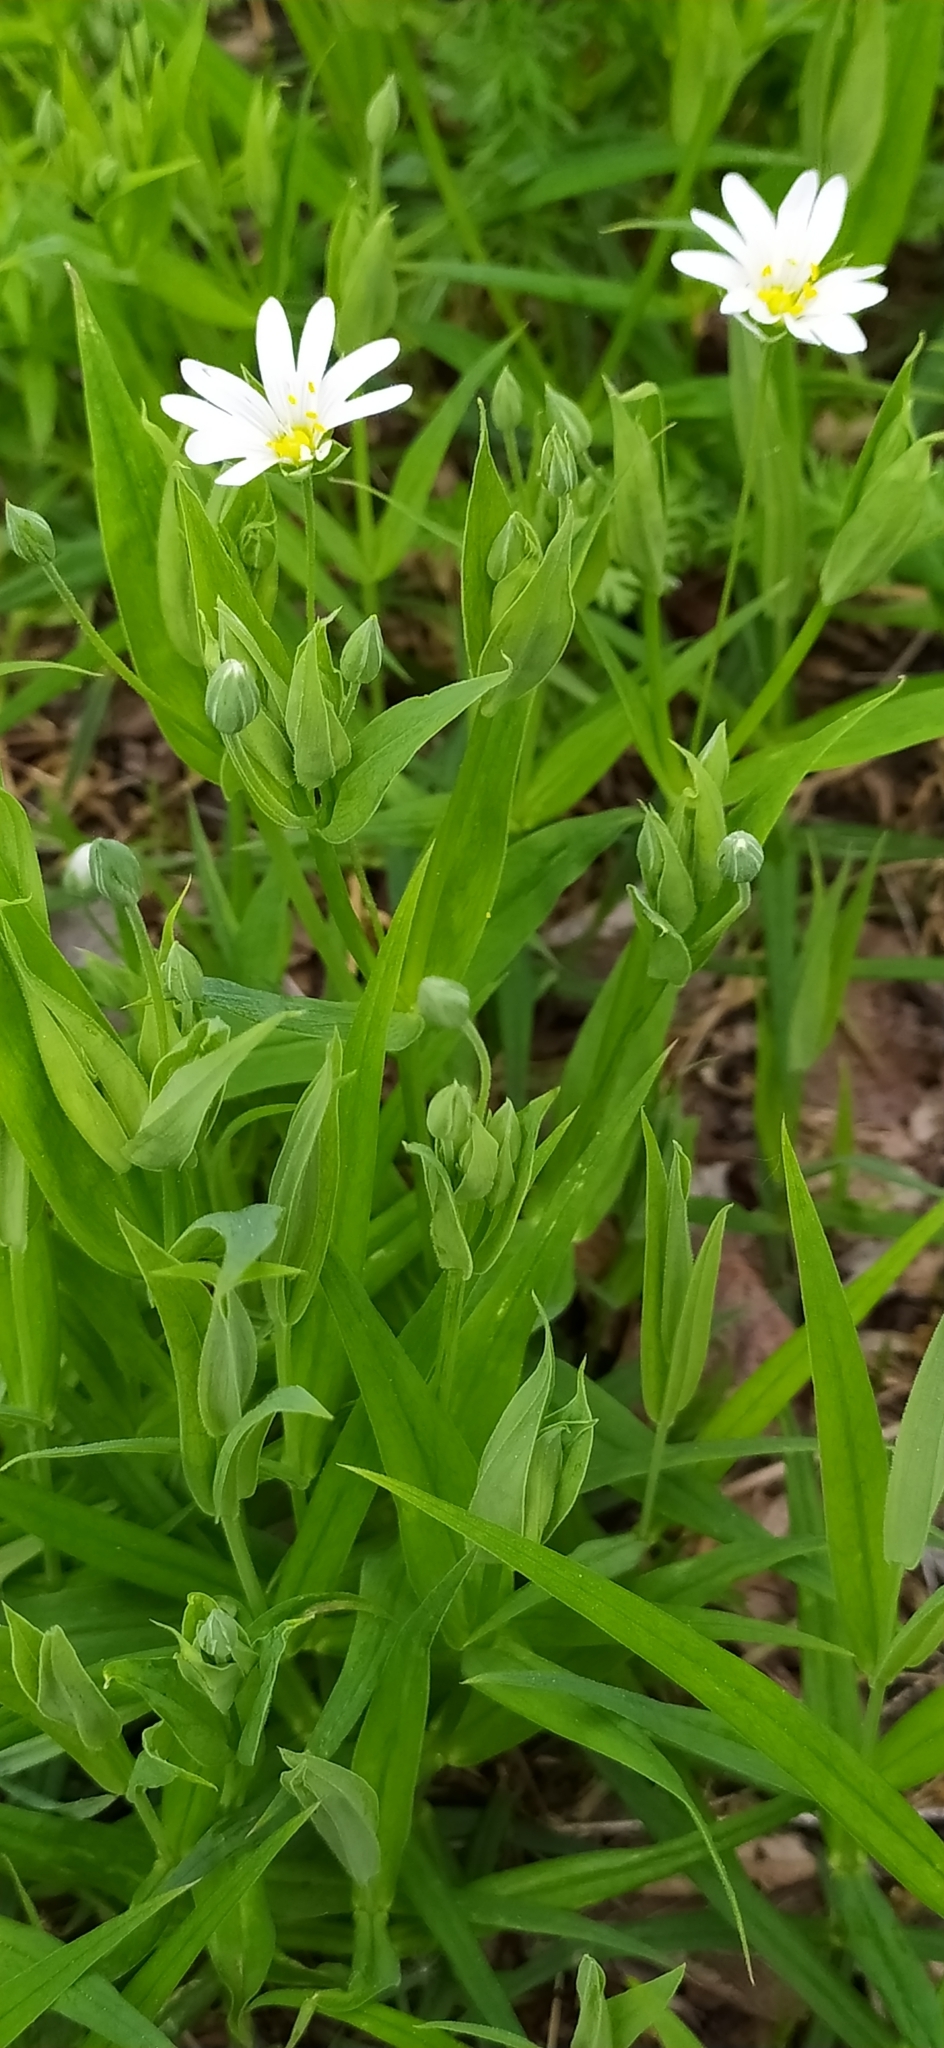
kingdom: Plantae
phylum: Tracheophyta
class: Magnoliopsida
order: Caryophyllales
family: Caryophyllaceae
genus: Rabelera
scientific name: Rabelera holostea
